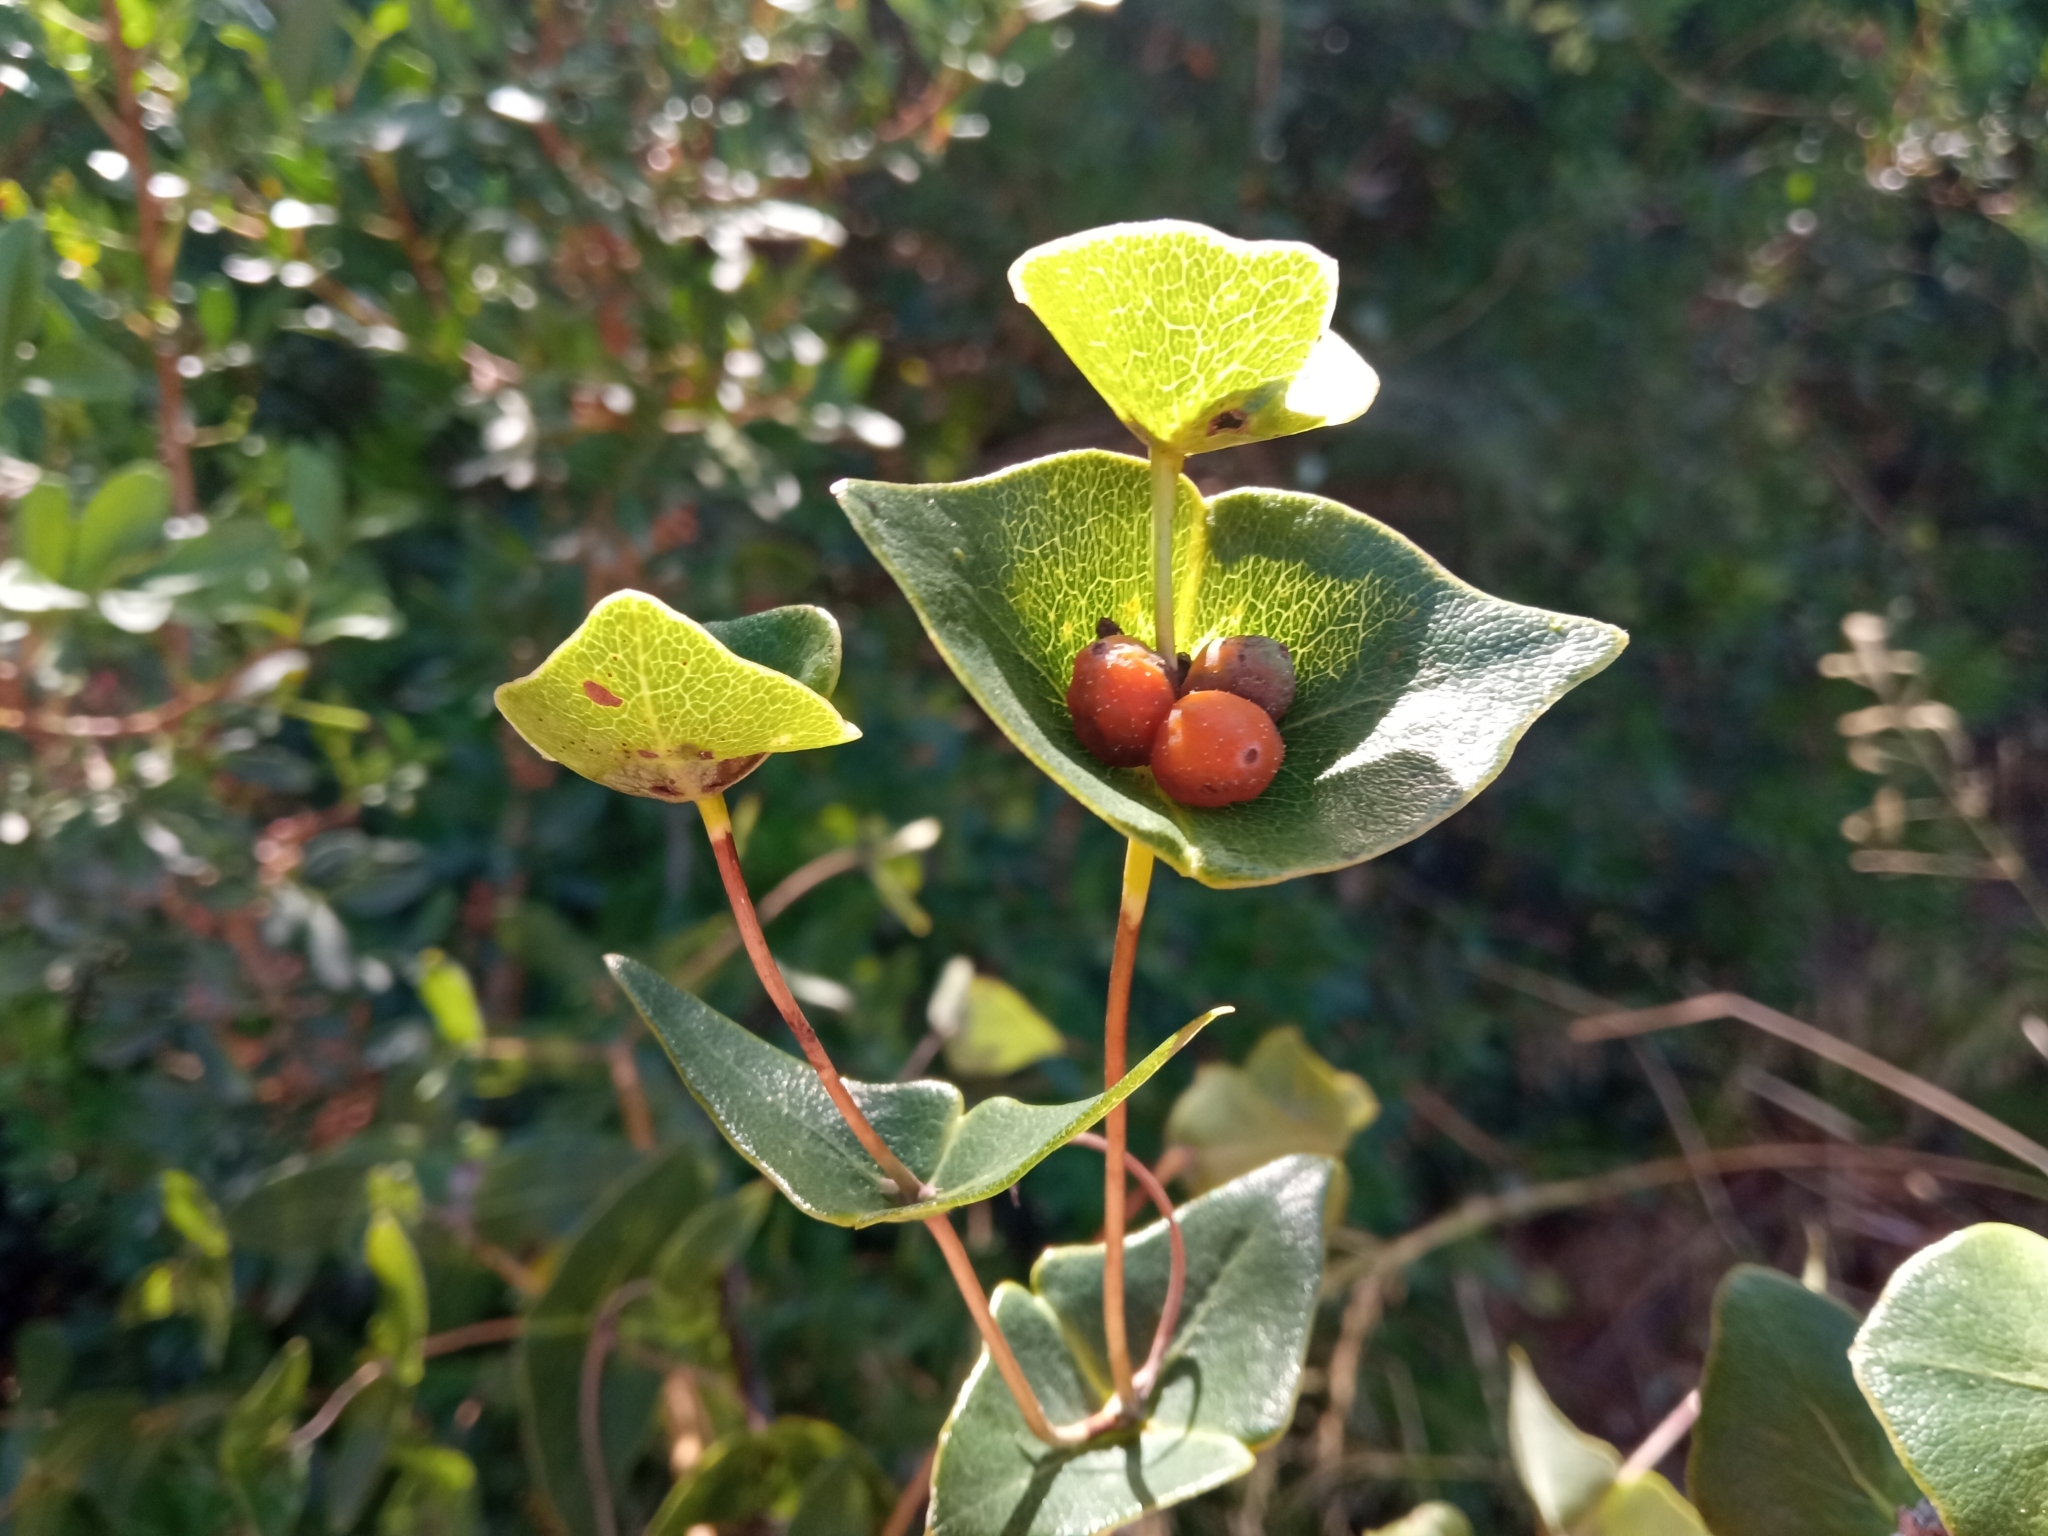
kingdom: Plantae
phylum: Tracheophyta
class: Magnoliopsida
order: Dipsacales
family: Caprifoliaceae
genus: Lonicera
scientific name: Lonicera implexa
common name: Minorca honeysuckle
